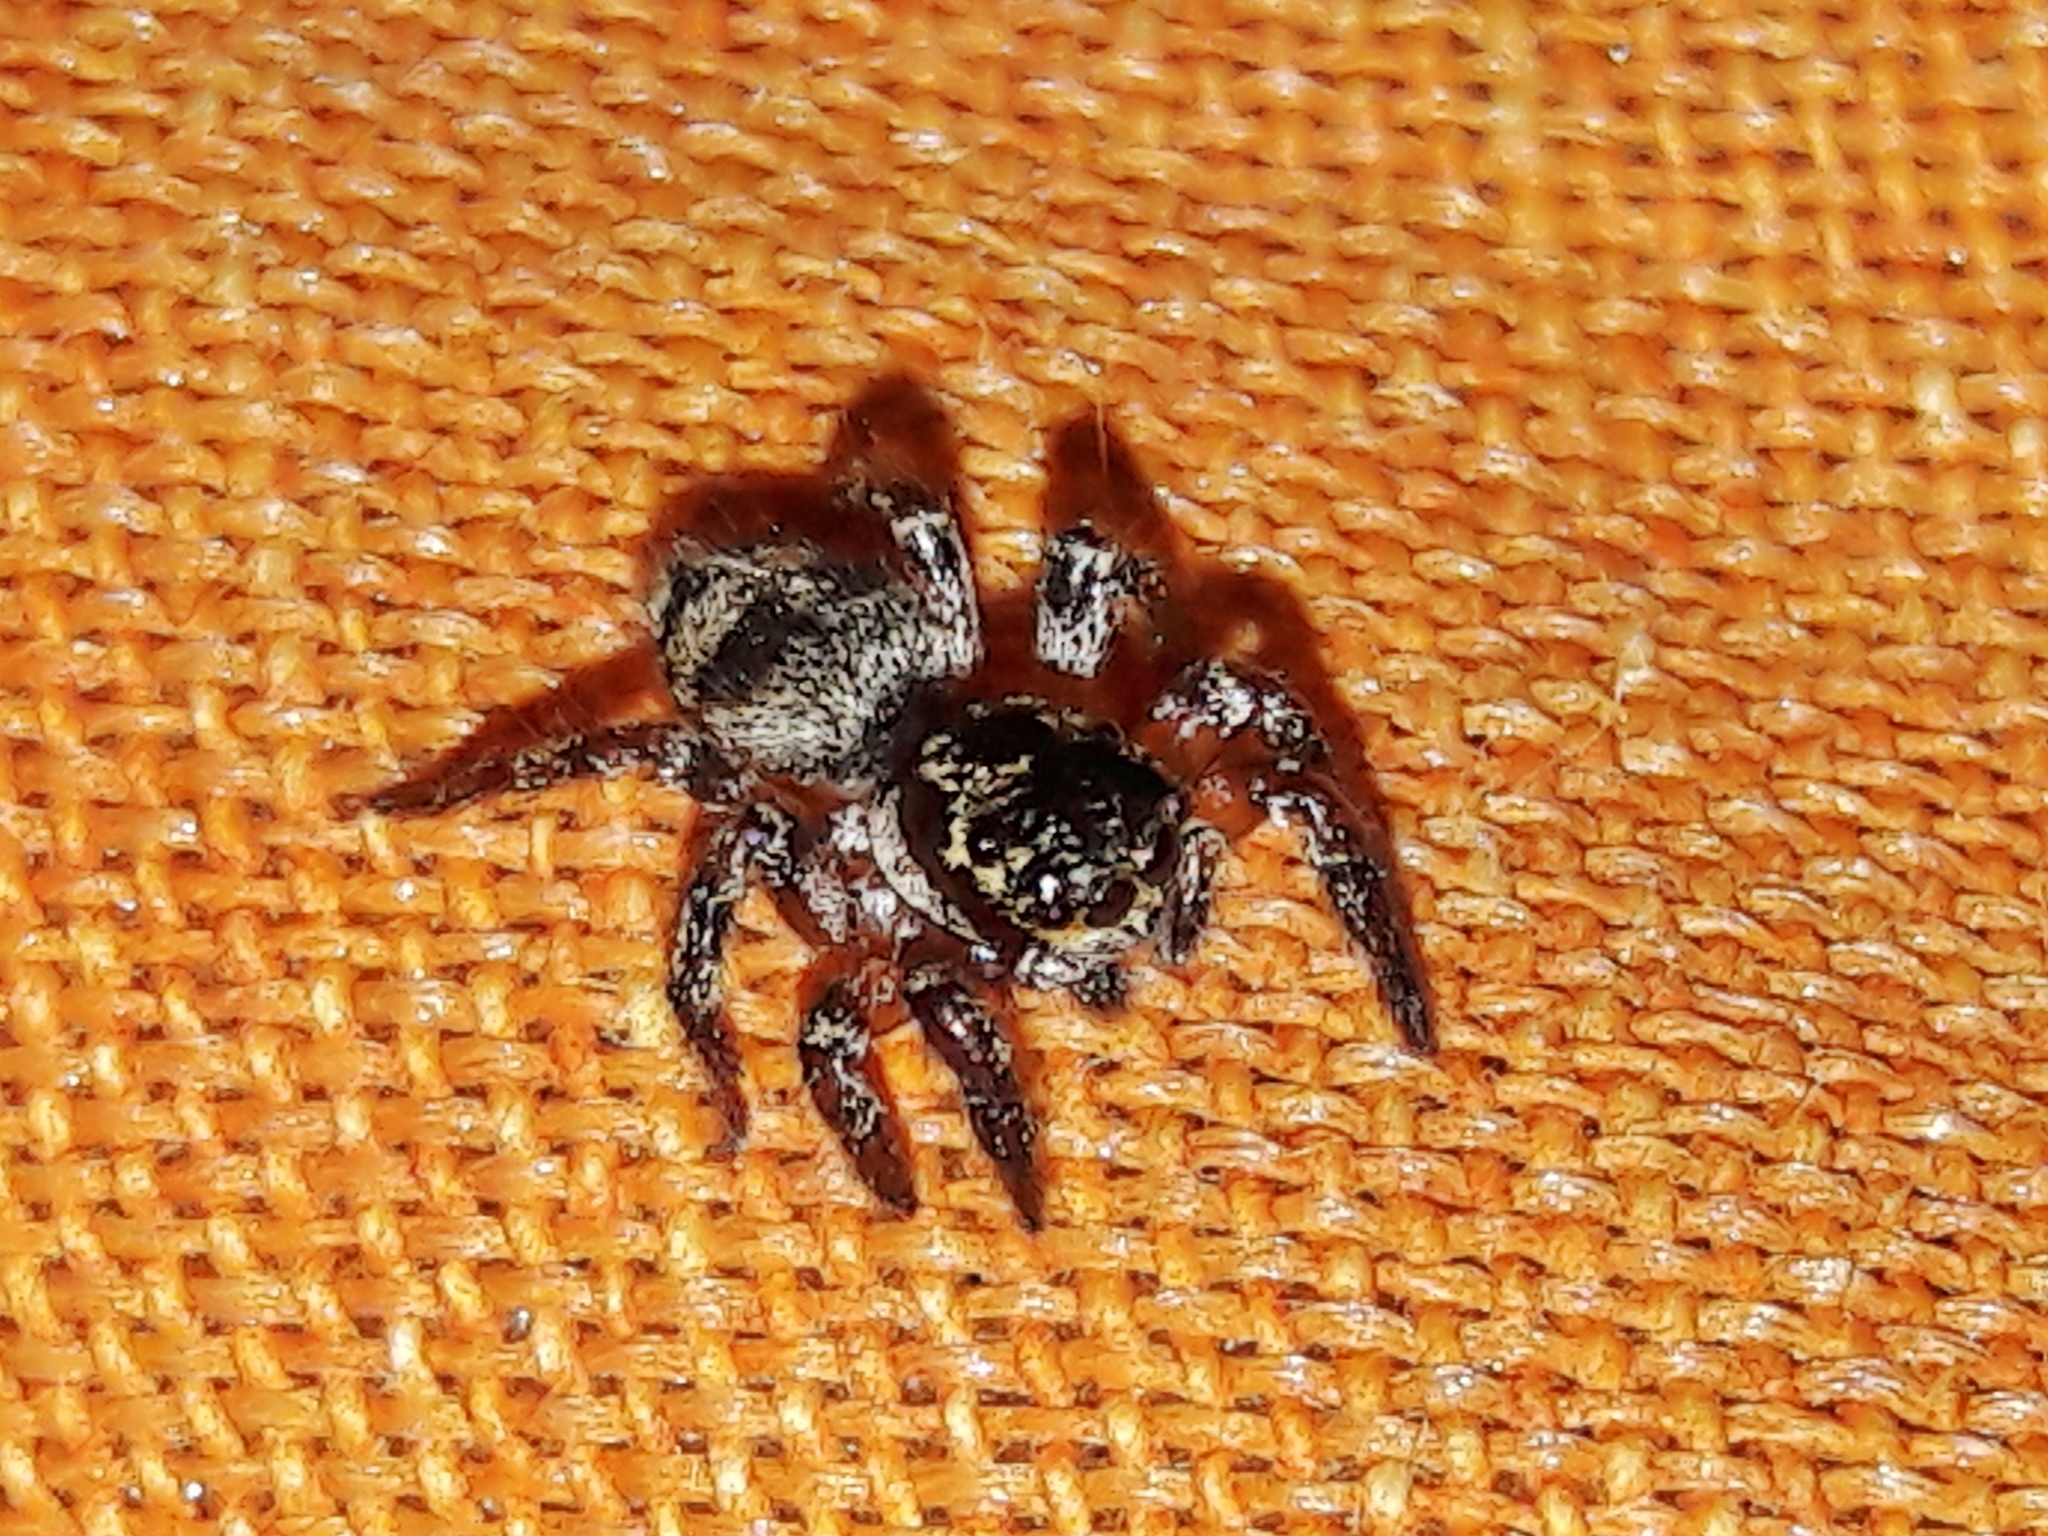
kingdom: Animalia
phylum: Arthropoda
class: Arachnida
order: Araneae
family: Salticidae
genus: Corythalia
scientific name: Corythalia conferta
